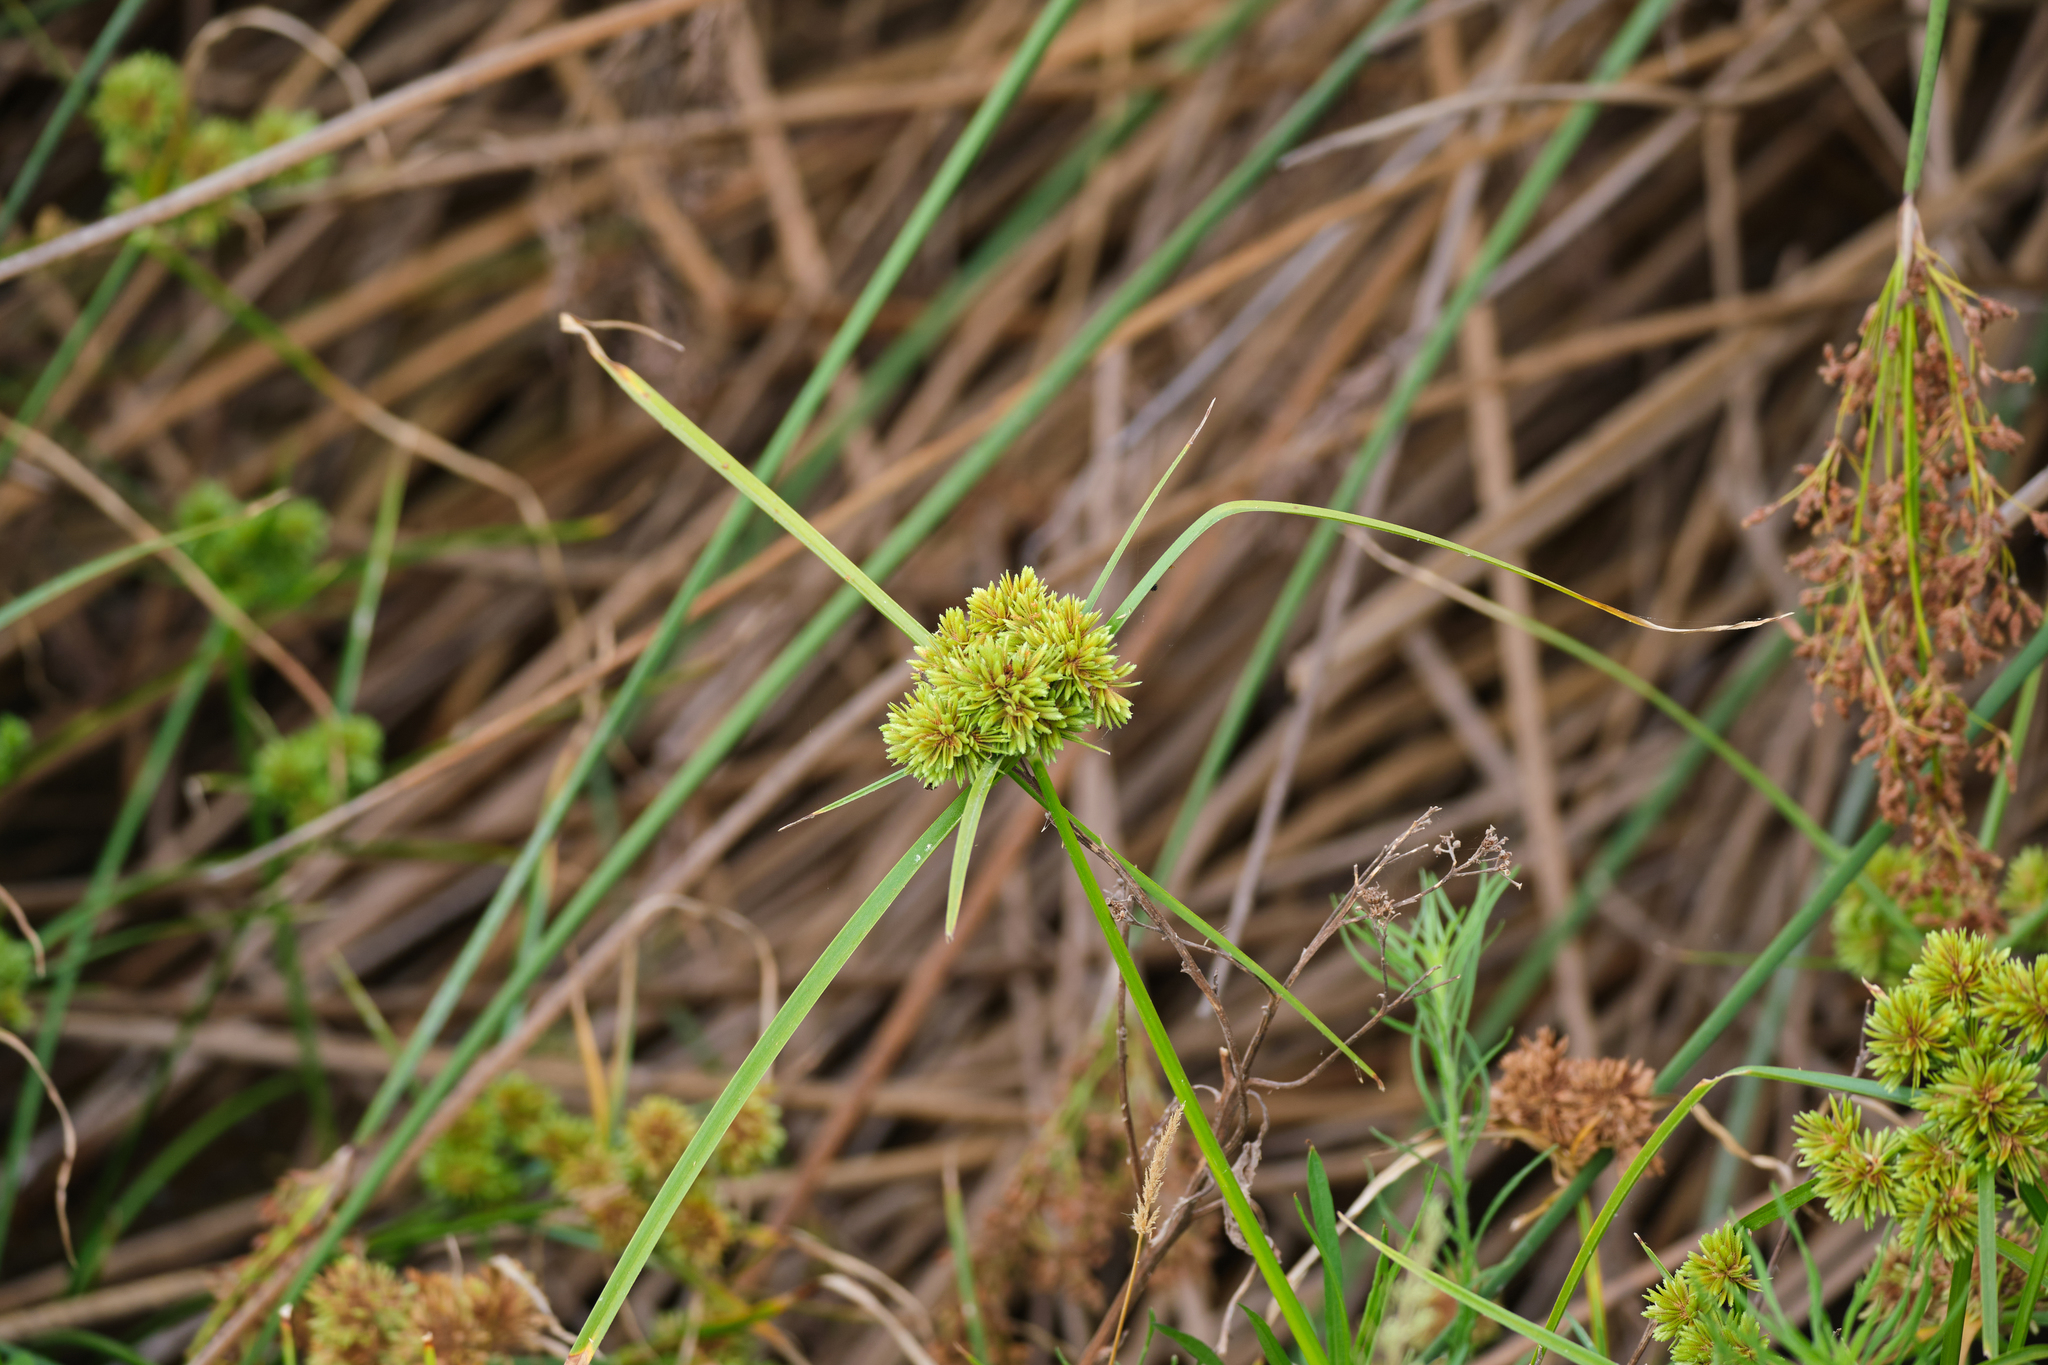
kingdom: Plantae
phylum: Tracheophyta
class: Liliopsida
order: Poales
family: Cyperaceae
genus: Cyperus
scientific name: Cyperus eragrostis
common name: Tall flatsedge
